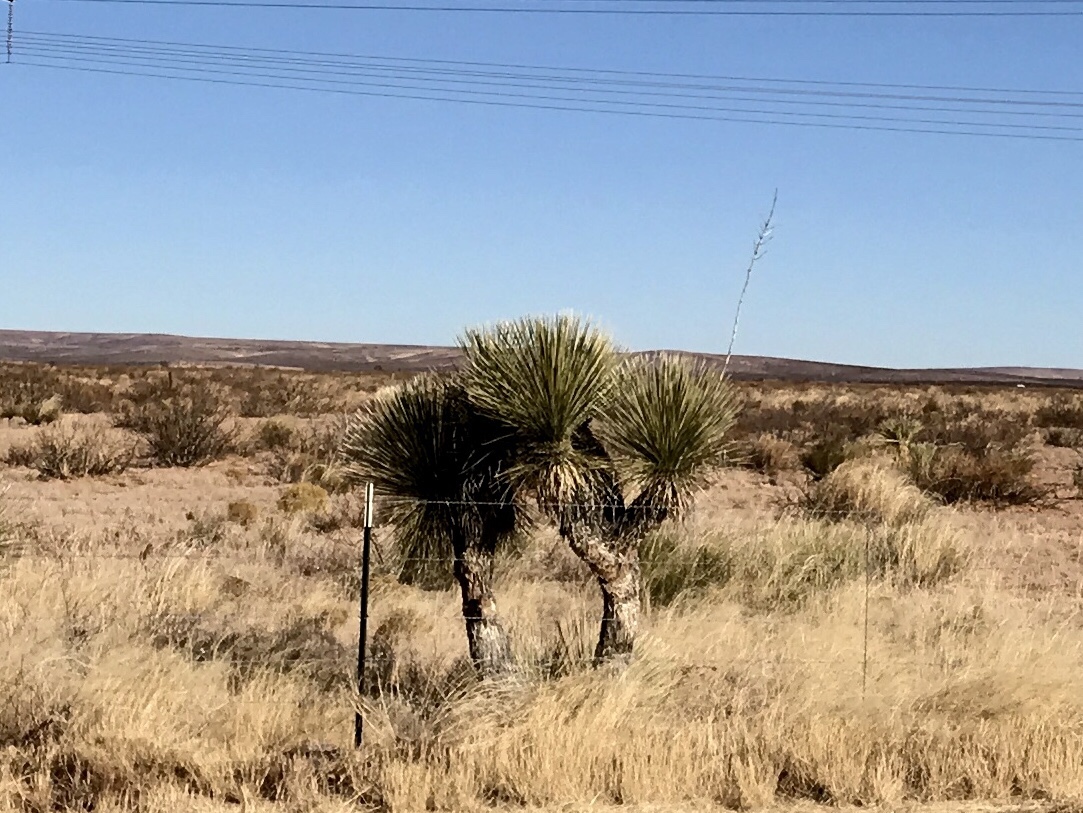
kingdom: Plantae
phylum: Tracheophyta
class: Liliopsida
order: Asparagales
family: Asparagaceae
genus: Yucca
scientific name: Yucca elata
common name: Palmella
